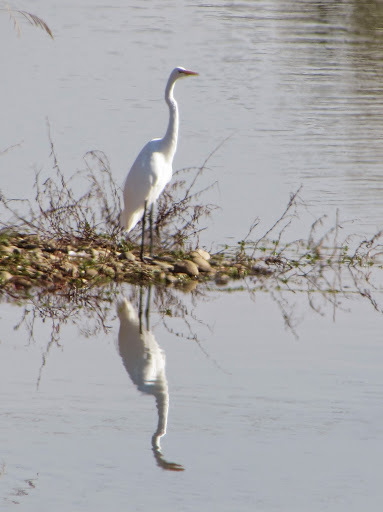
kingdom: Animalia
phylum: Chordata
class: Aves
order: Pelecaniformes
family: Ardeidae
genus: Ardea
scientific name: Ardea alba
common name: Great egret
